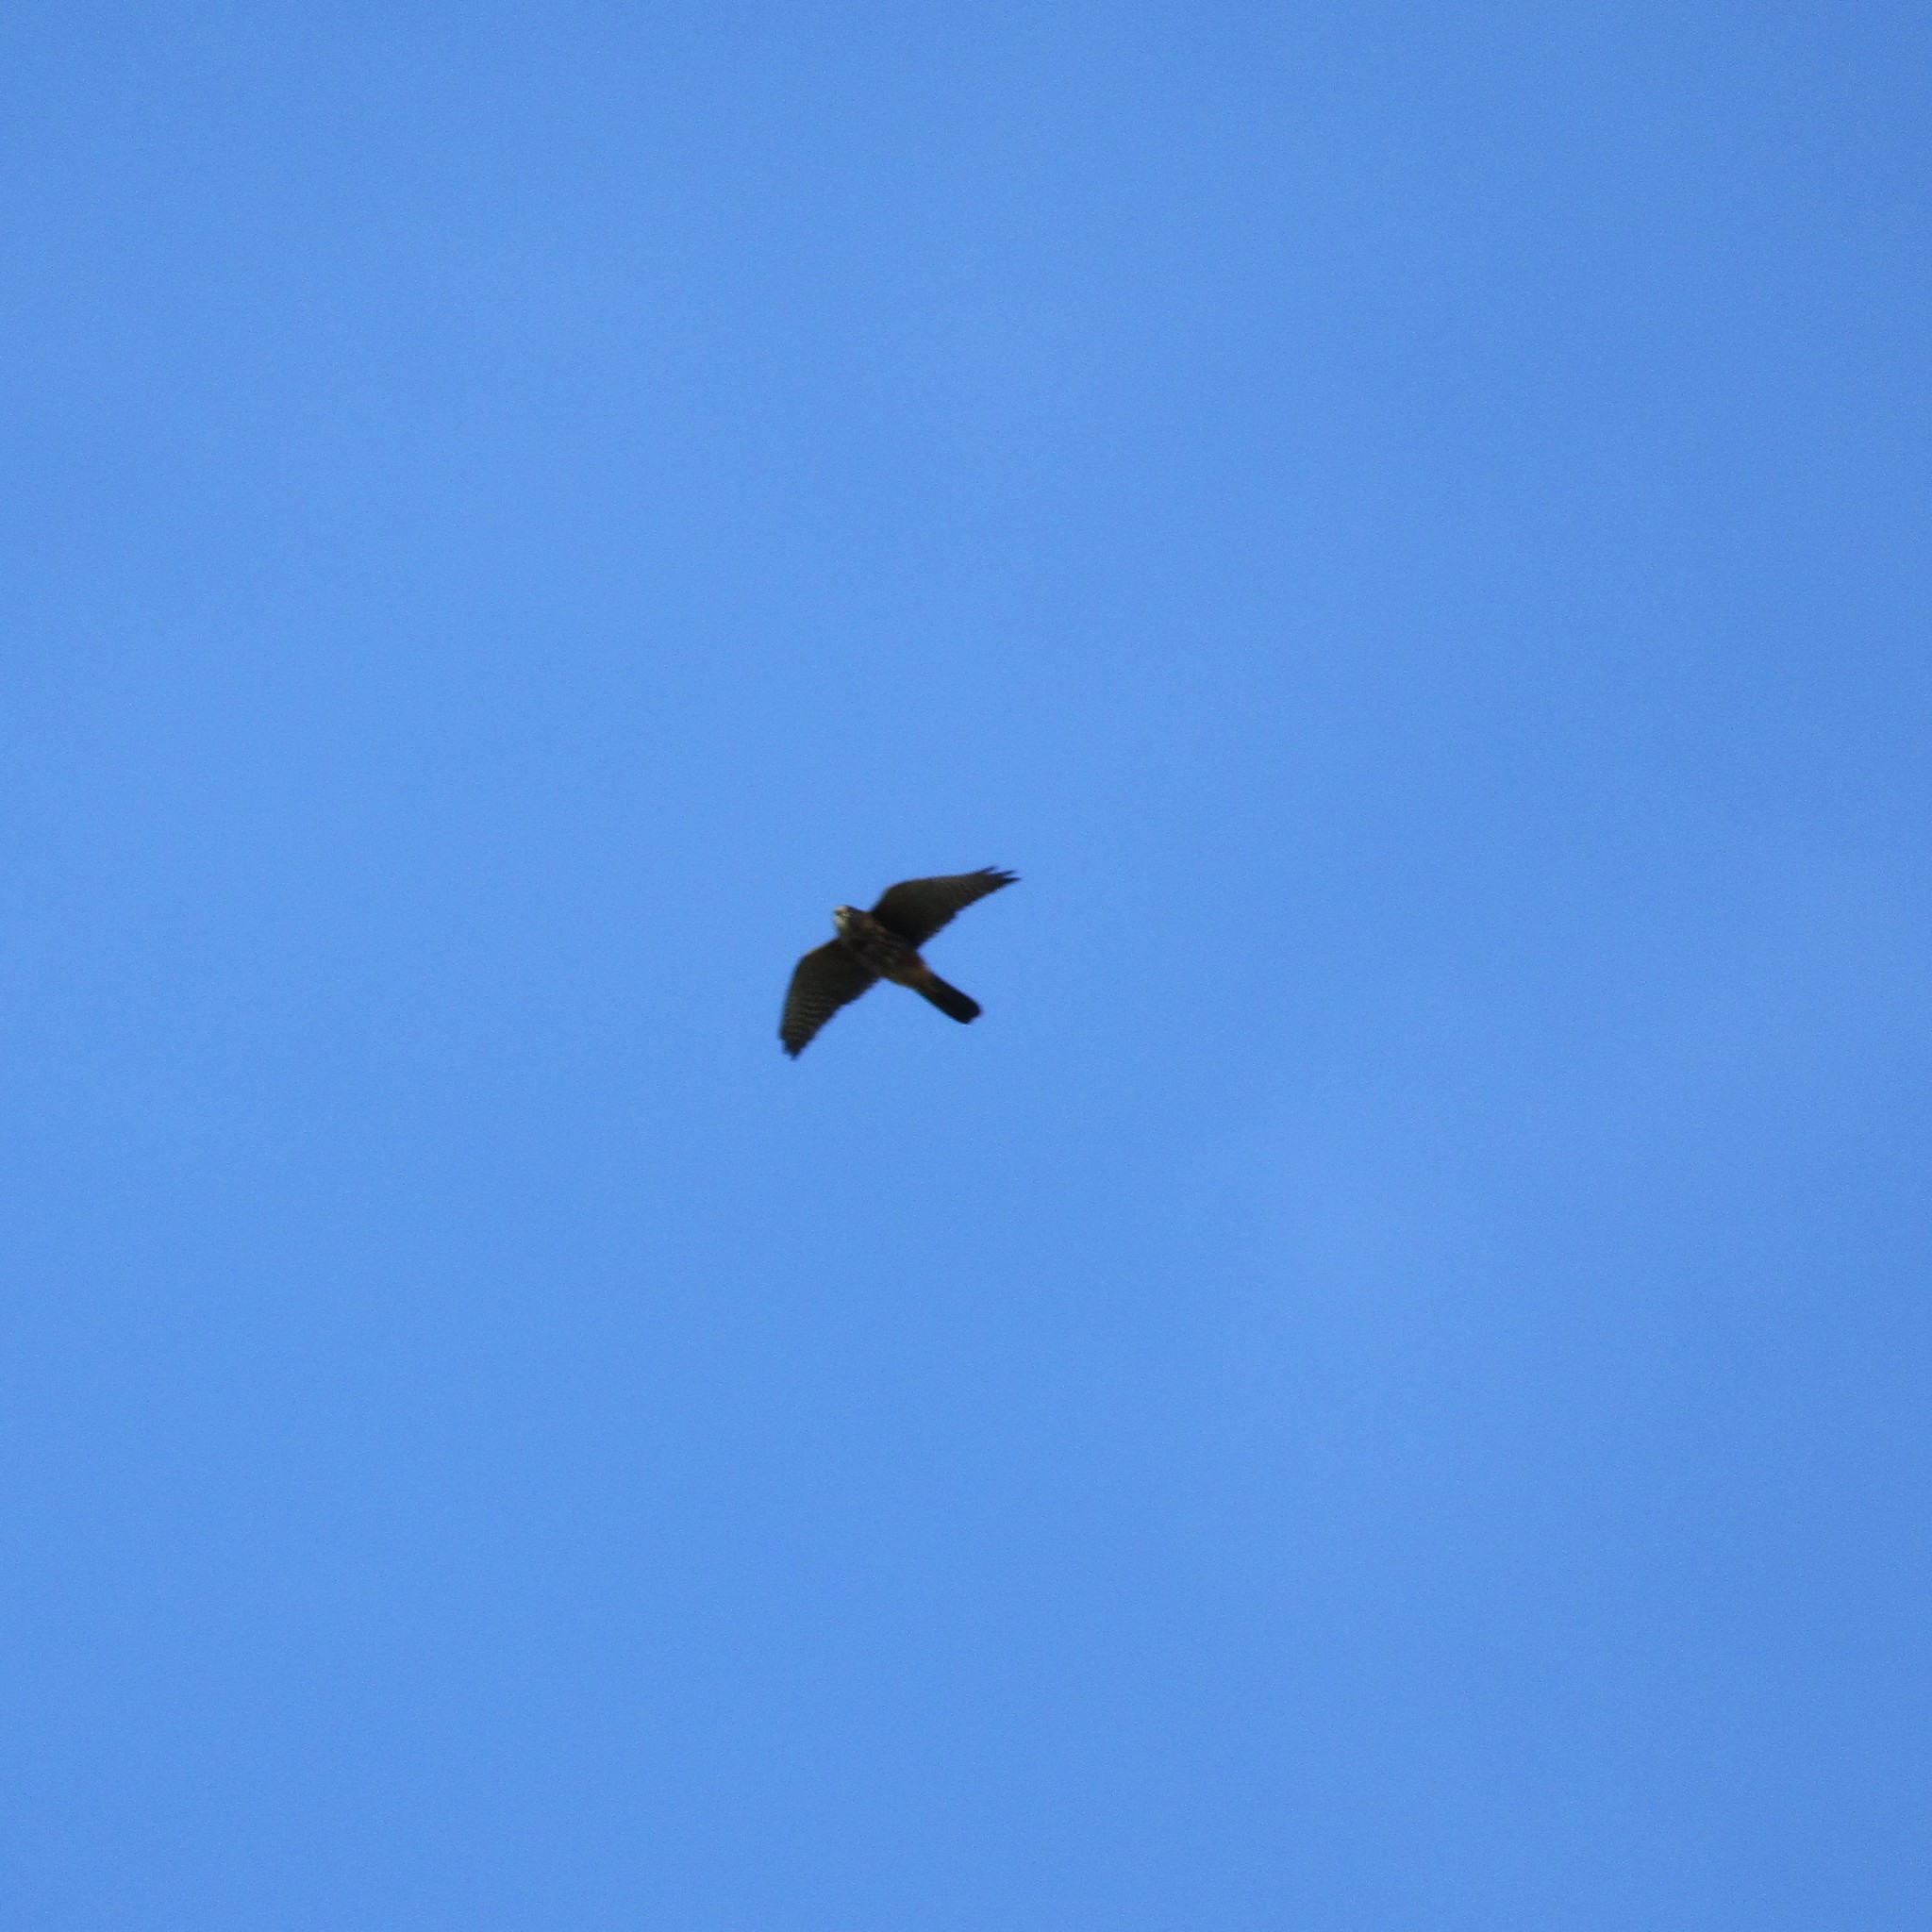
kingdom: Animalia
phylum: Chordata
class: Aves
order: Falconiformes
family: Falconidae
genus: Falco
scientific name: Falco novaeseelandiae
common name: New zealand falcon
